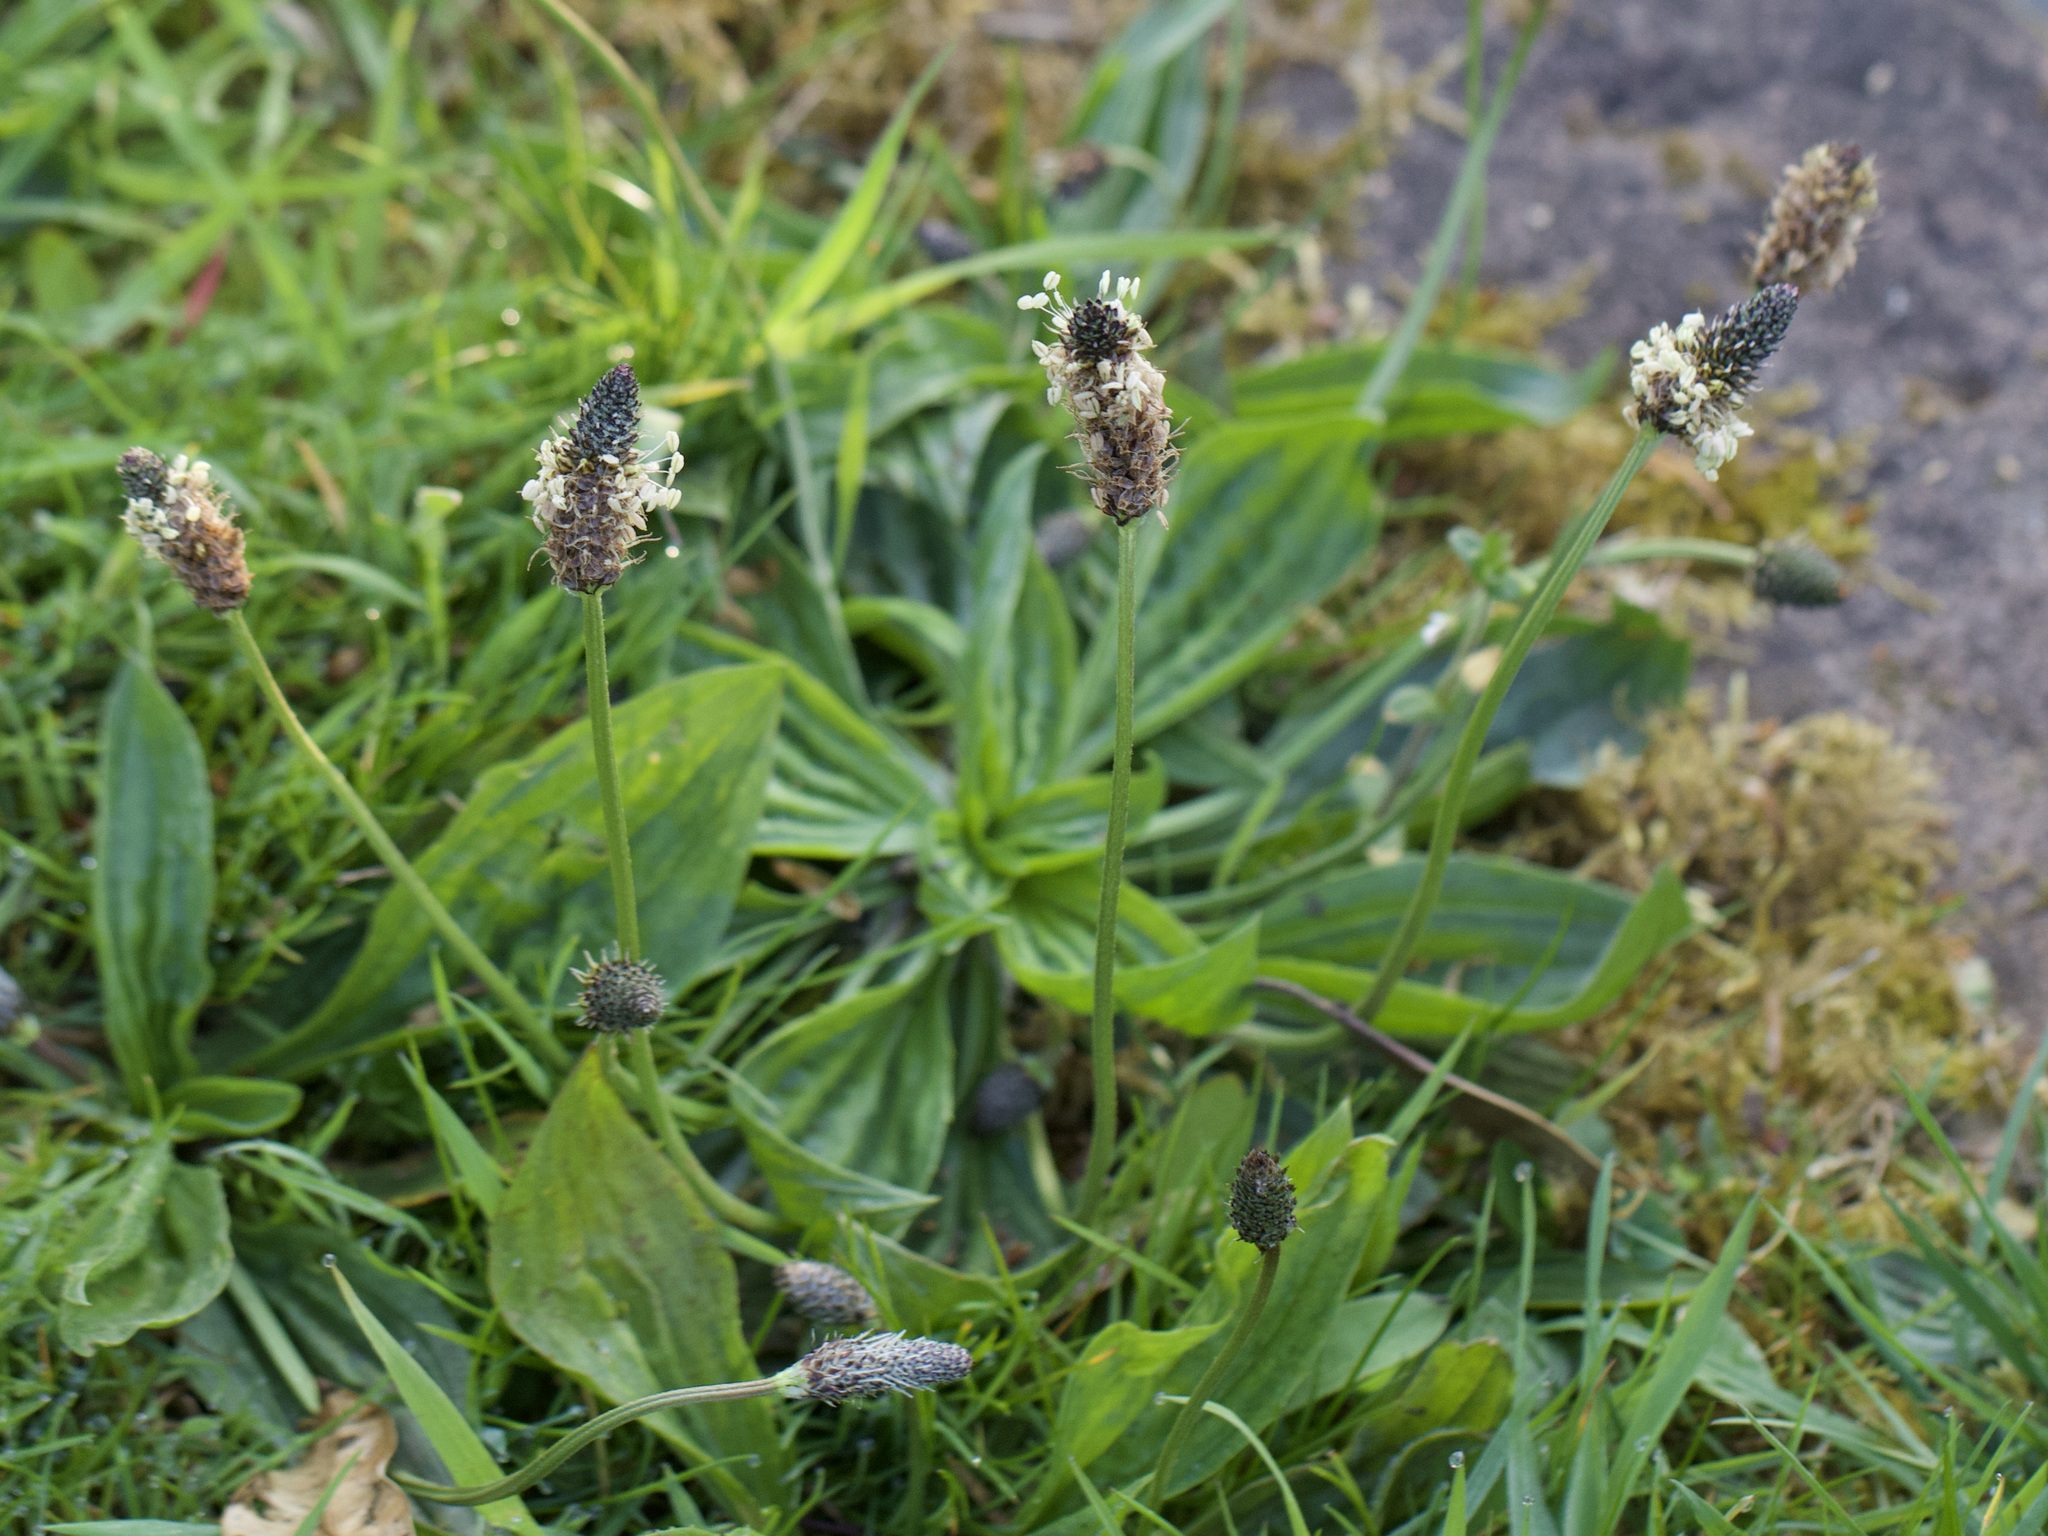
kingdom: Plantae
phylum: Tracheophyta
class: Magnoliopsida
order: Lamiales
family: Plantaginaceae
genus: Plantago
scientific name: Plantago lanceolata
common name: Ribwort plantain
